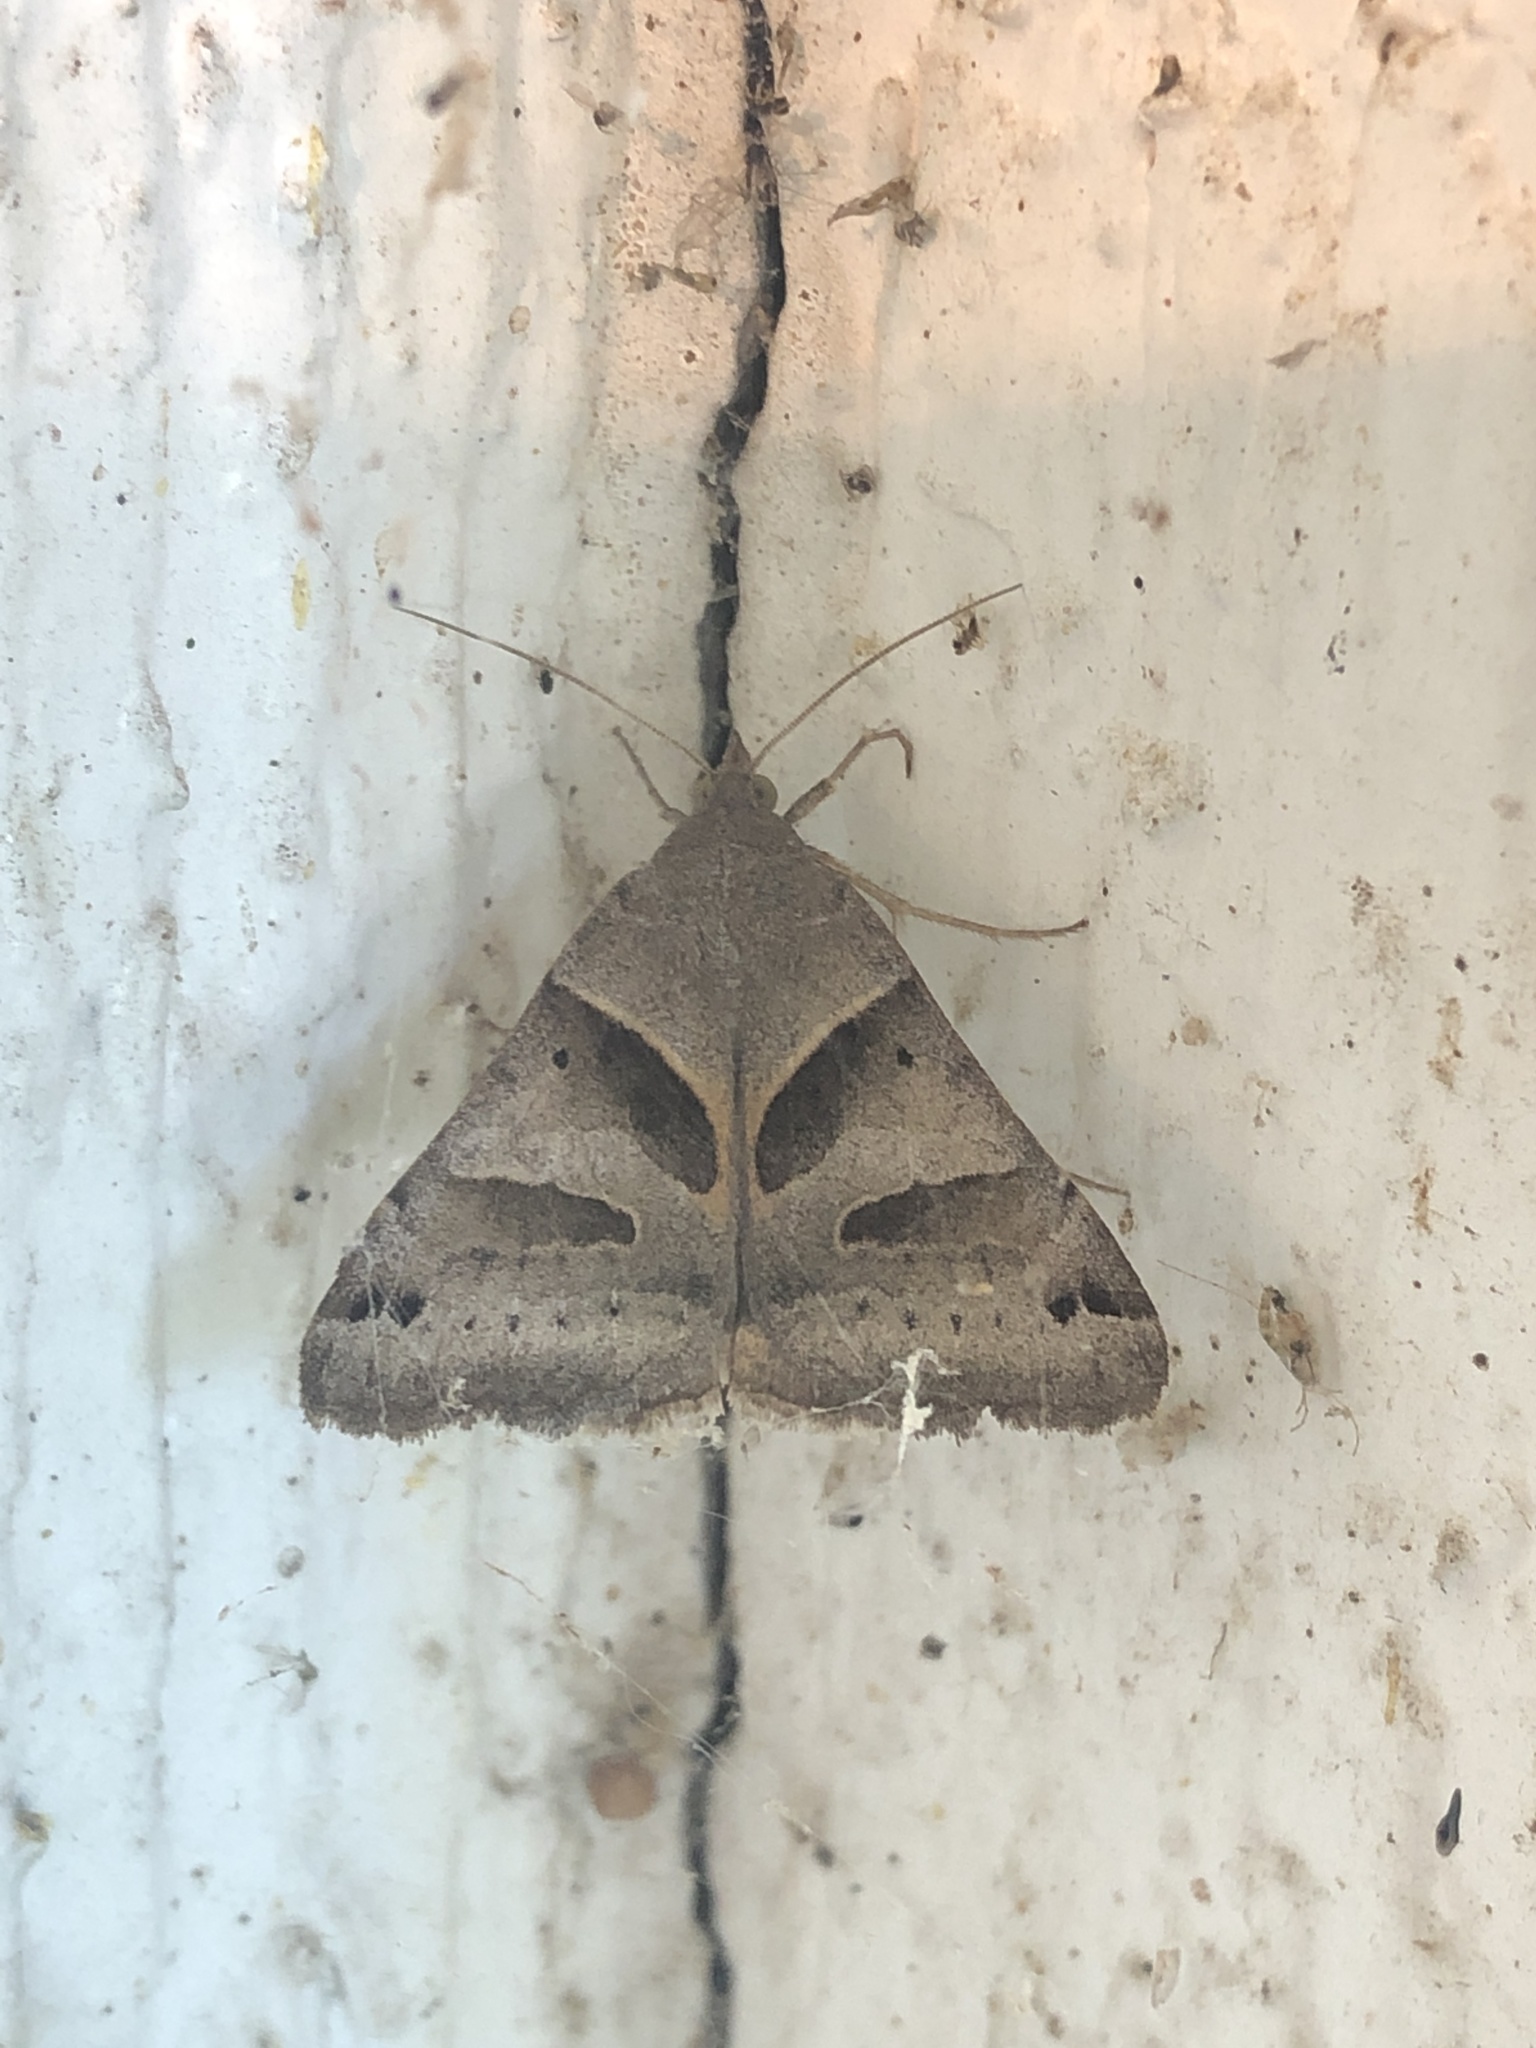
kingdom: Animalia
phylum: Arthropoda
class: Insecta
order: Lepidoptera
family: Erebidae
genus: Caenurgina
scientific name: Caenurgina erechtea
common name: Forage looper moth
